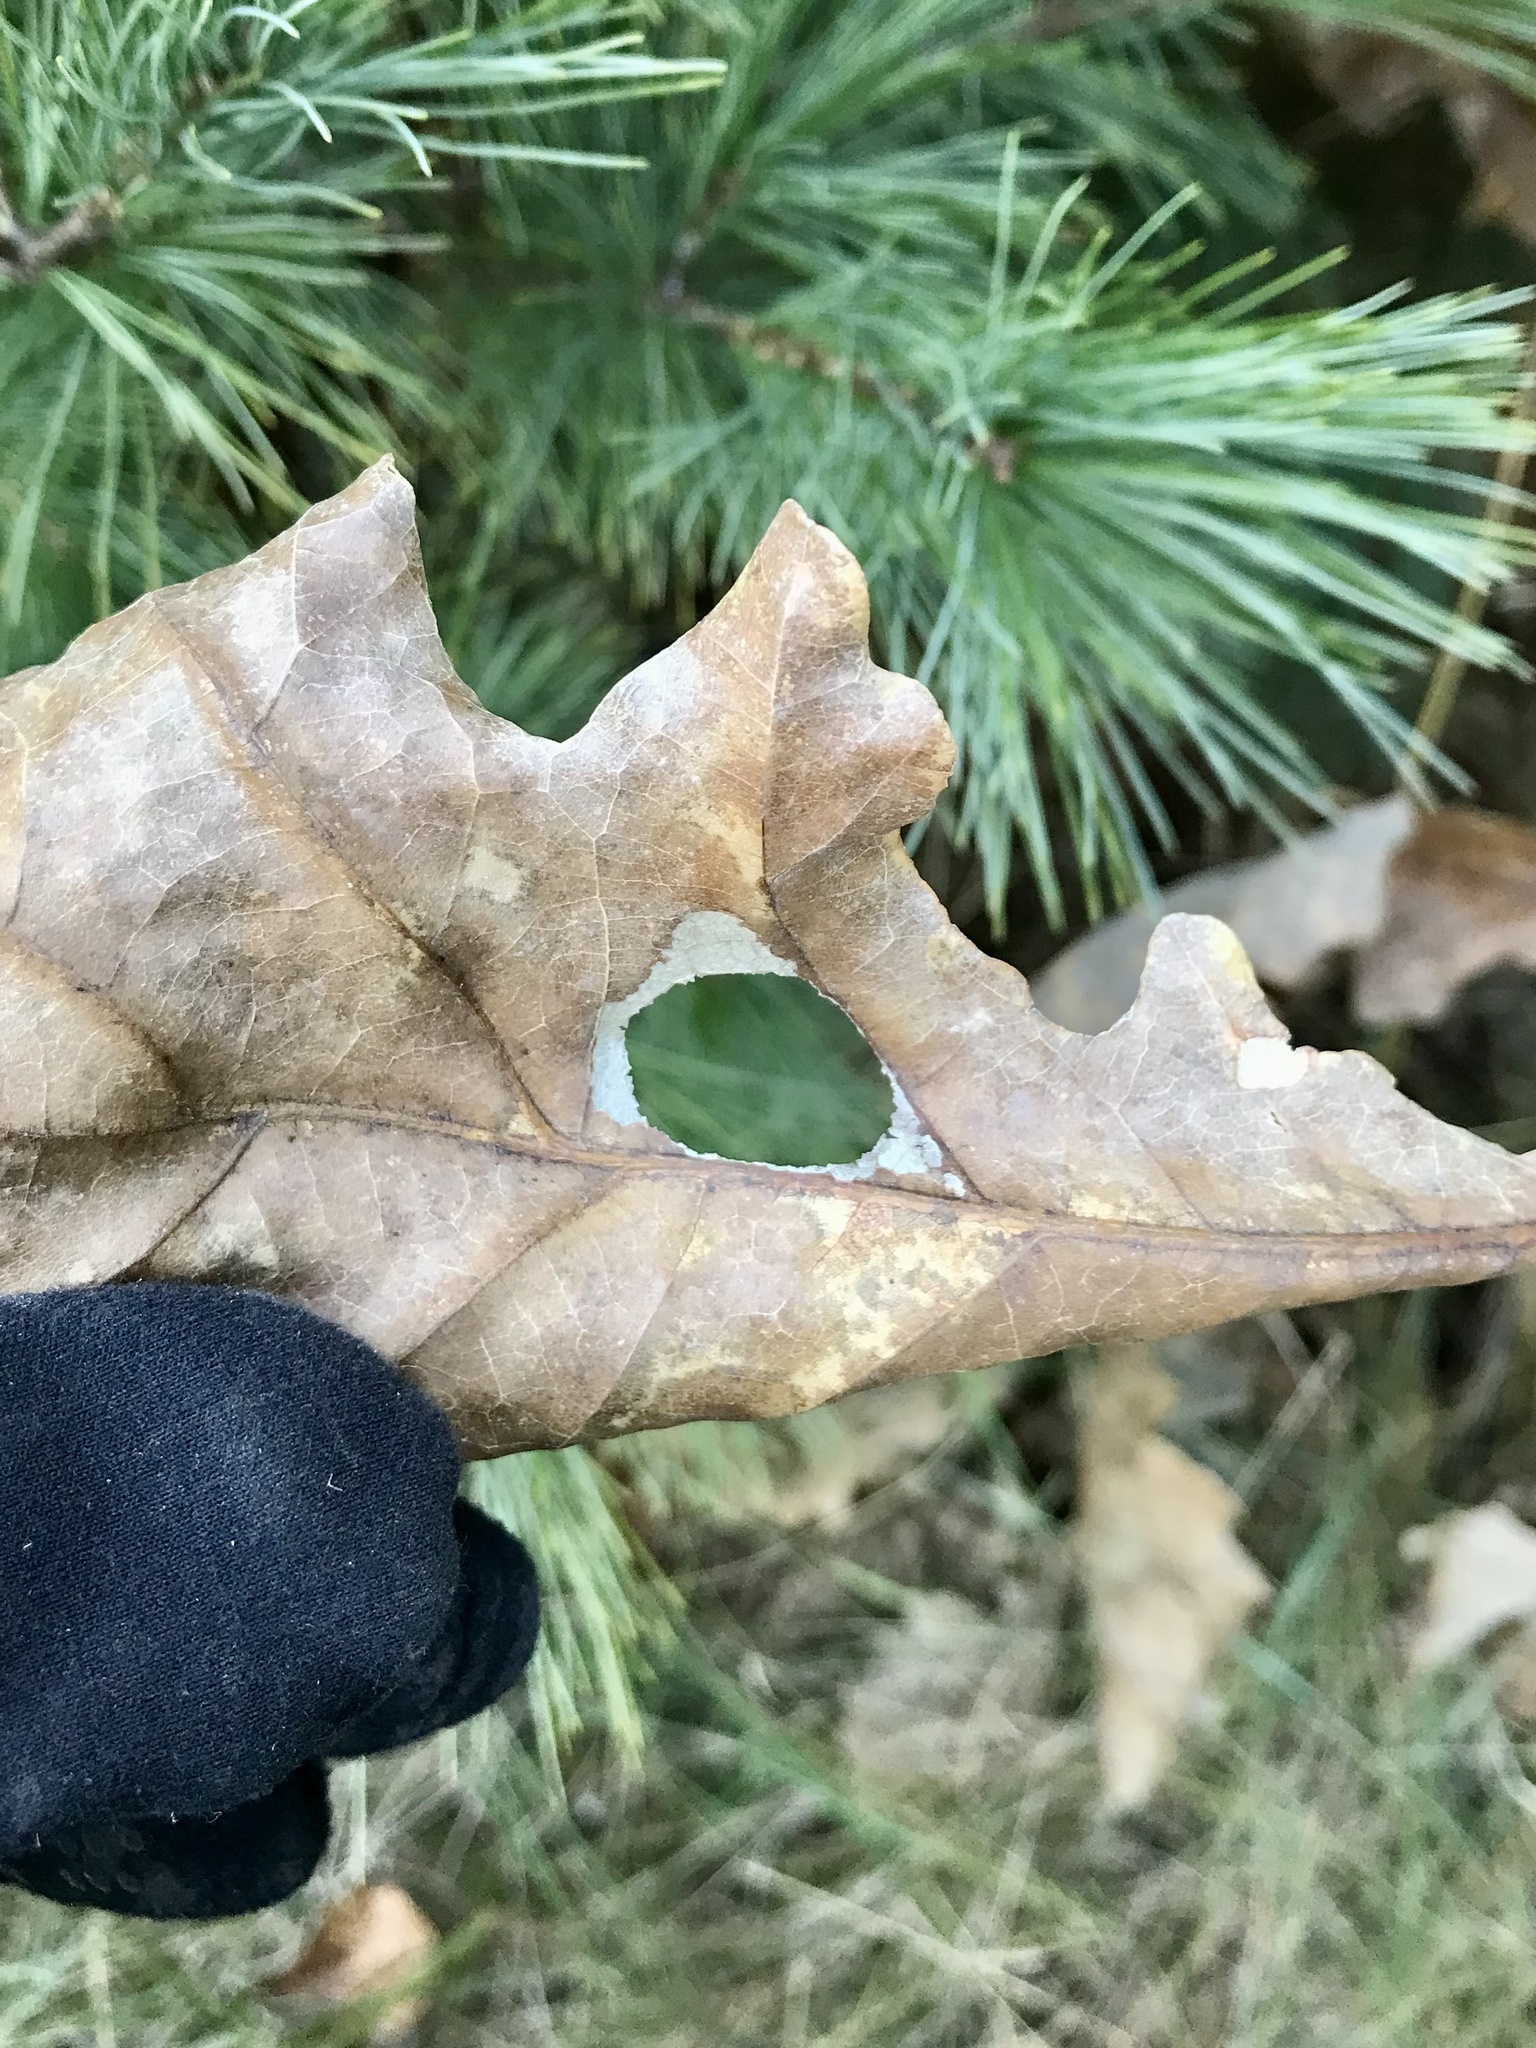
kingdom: Animalia
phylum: Arthropoda
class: Insecta
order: Lepidoptera
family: Depressariidae
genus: Menesta
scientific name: Menesta melanella
